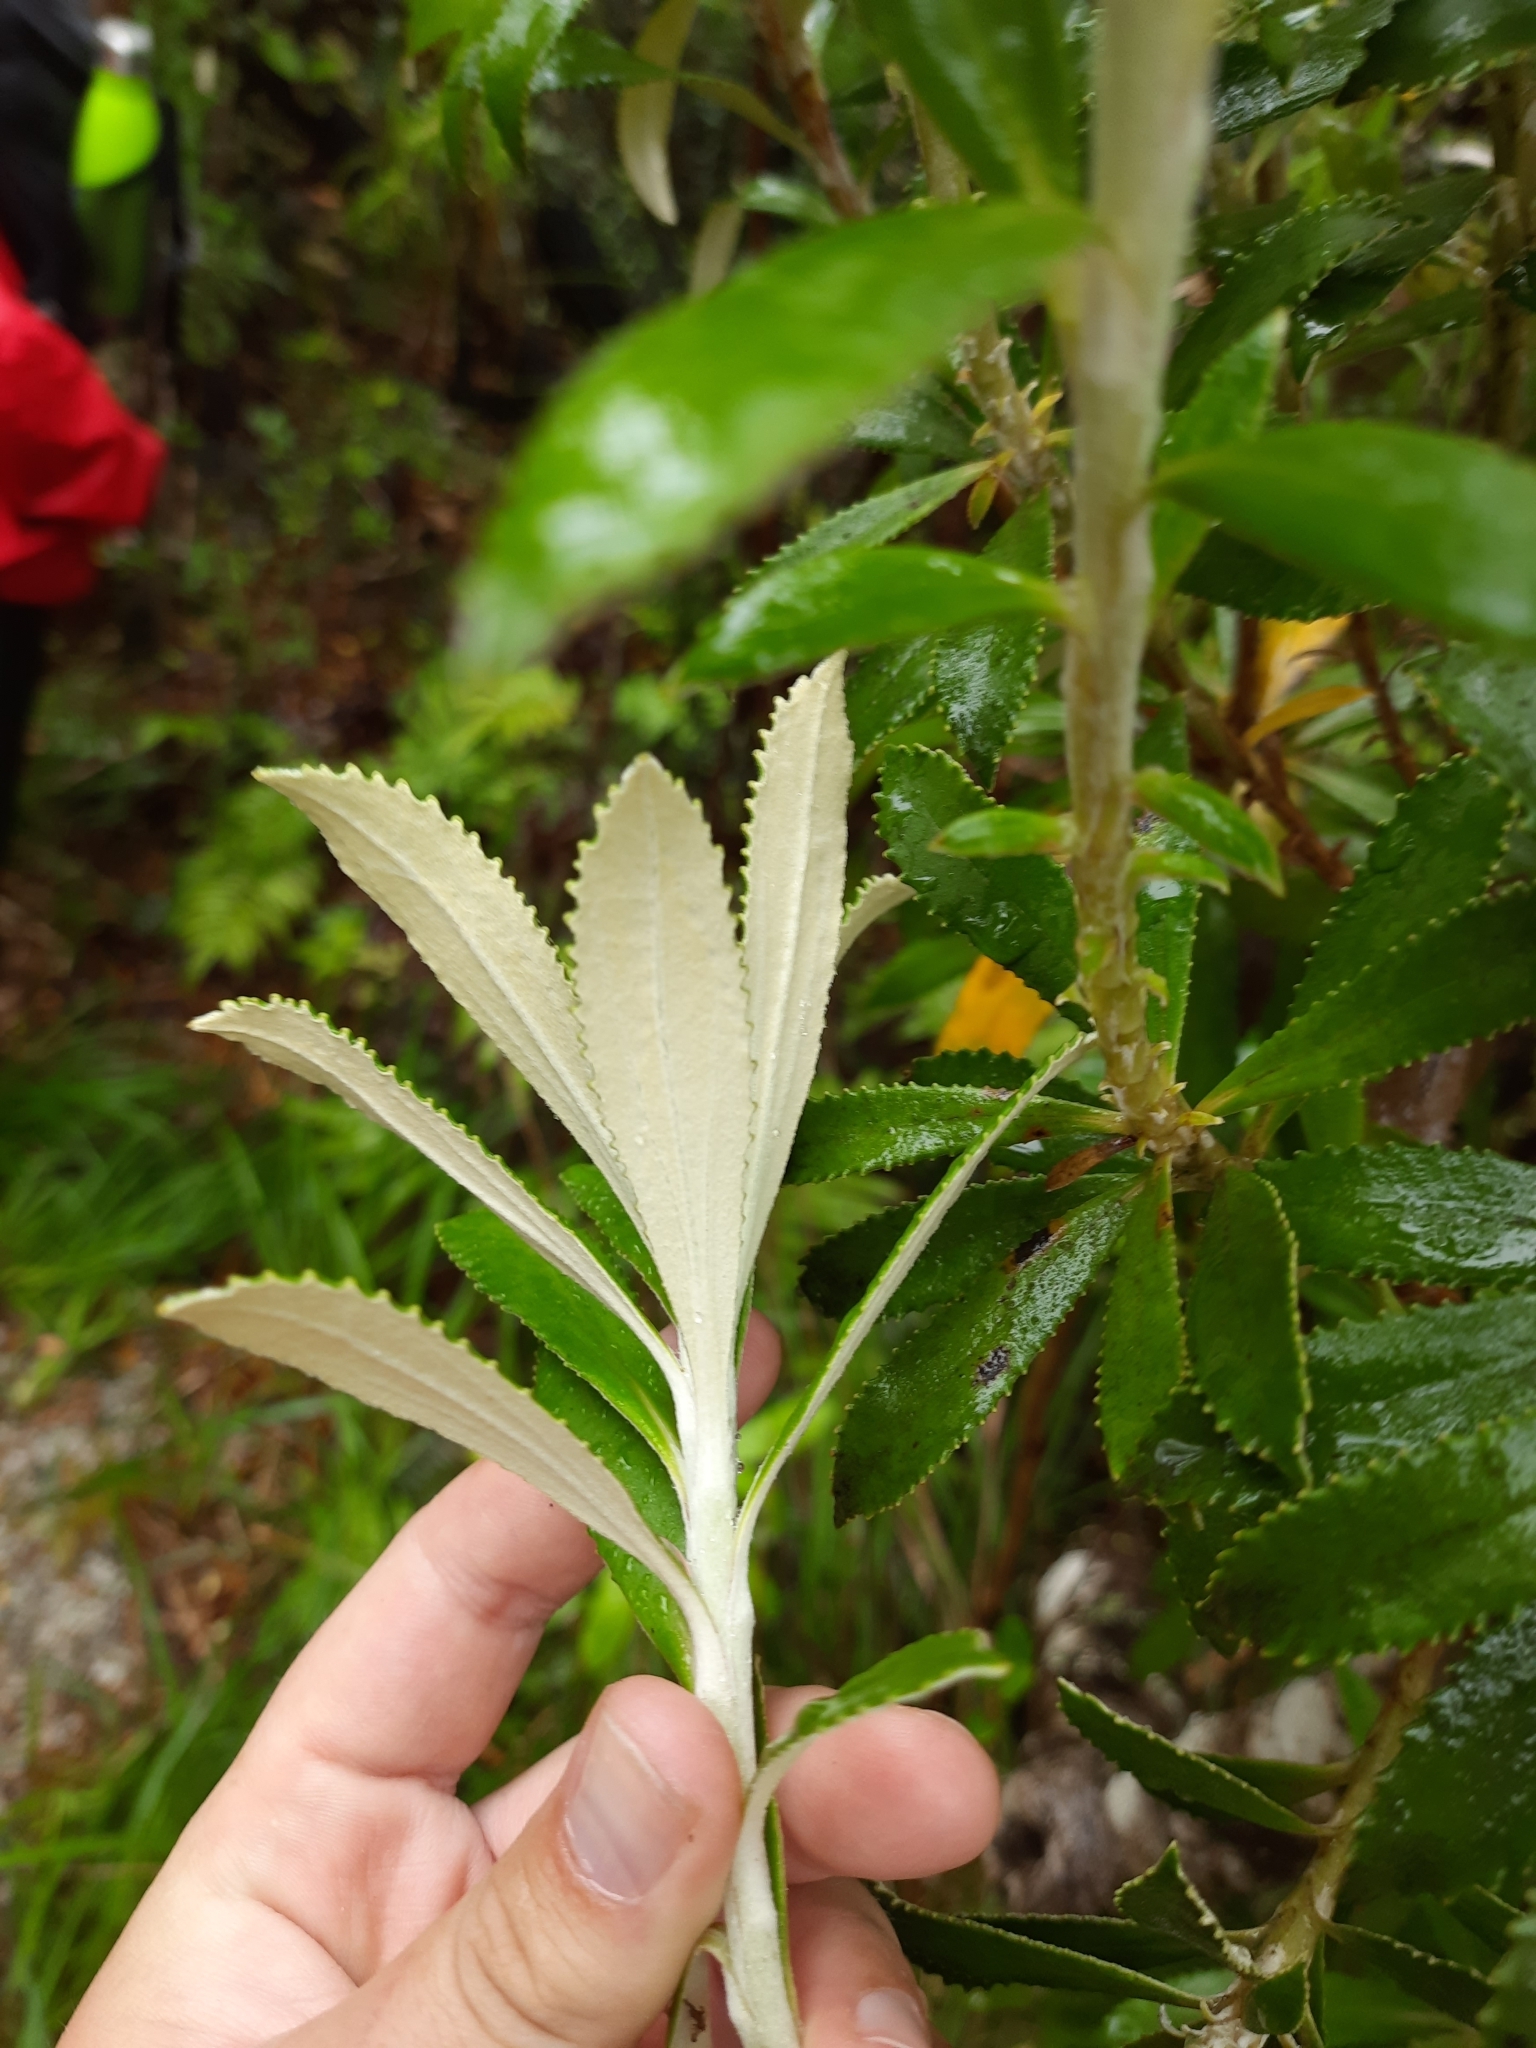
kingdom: Plantae
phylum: Tracheophyta
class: Magnoliopsida
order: Asterales
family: Asteraceae
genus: Macrolearia
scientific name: Macrolearia angustifolia
